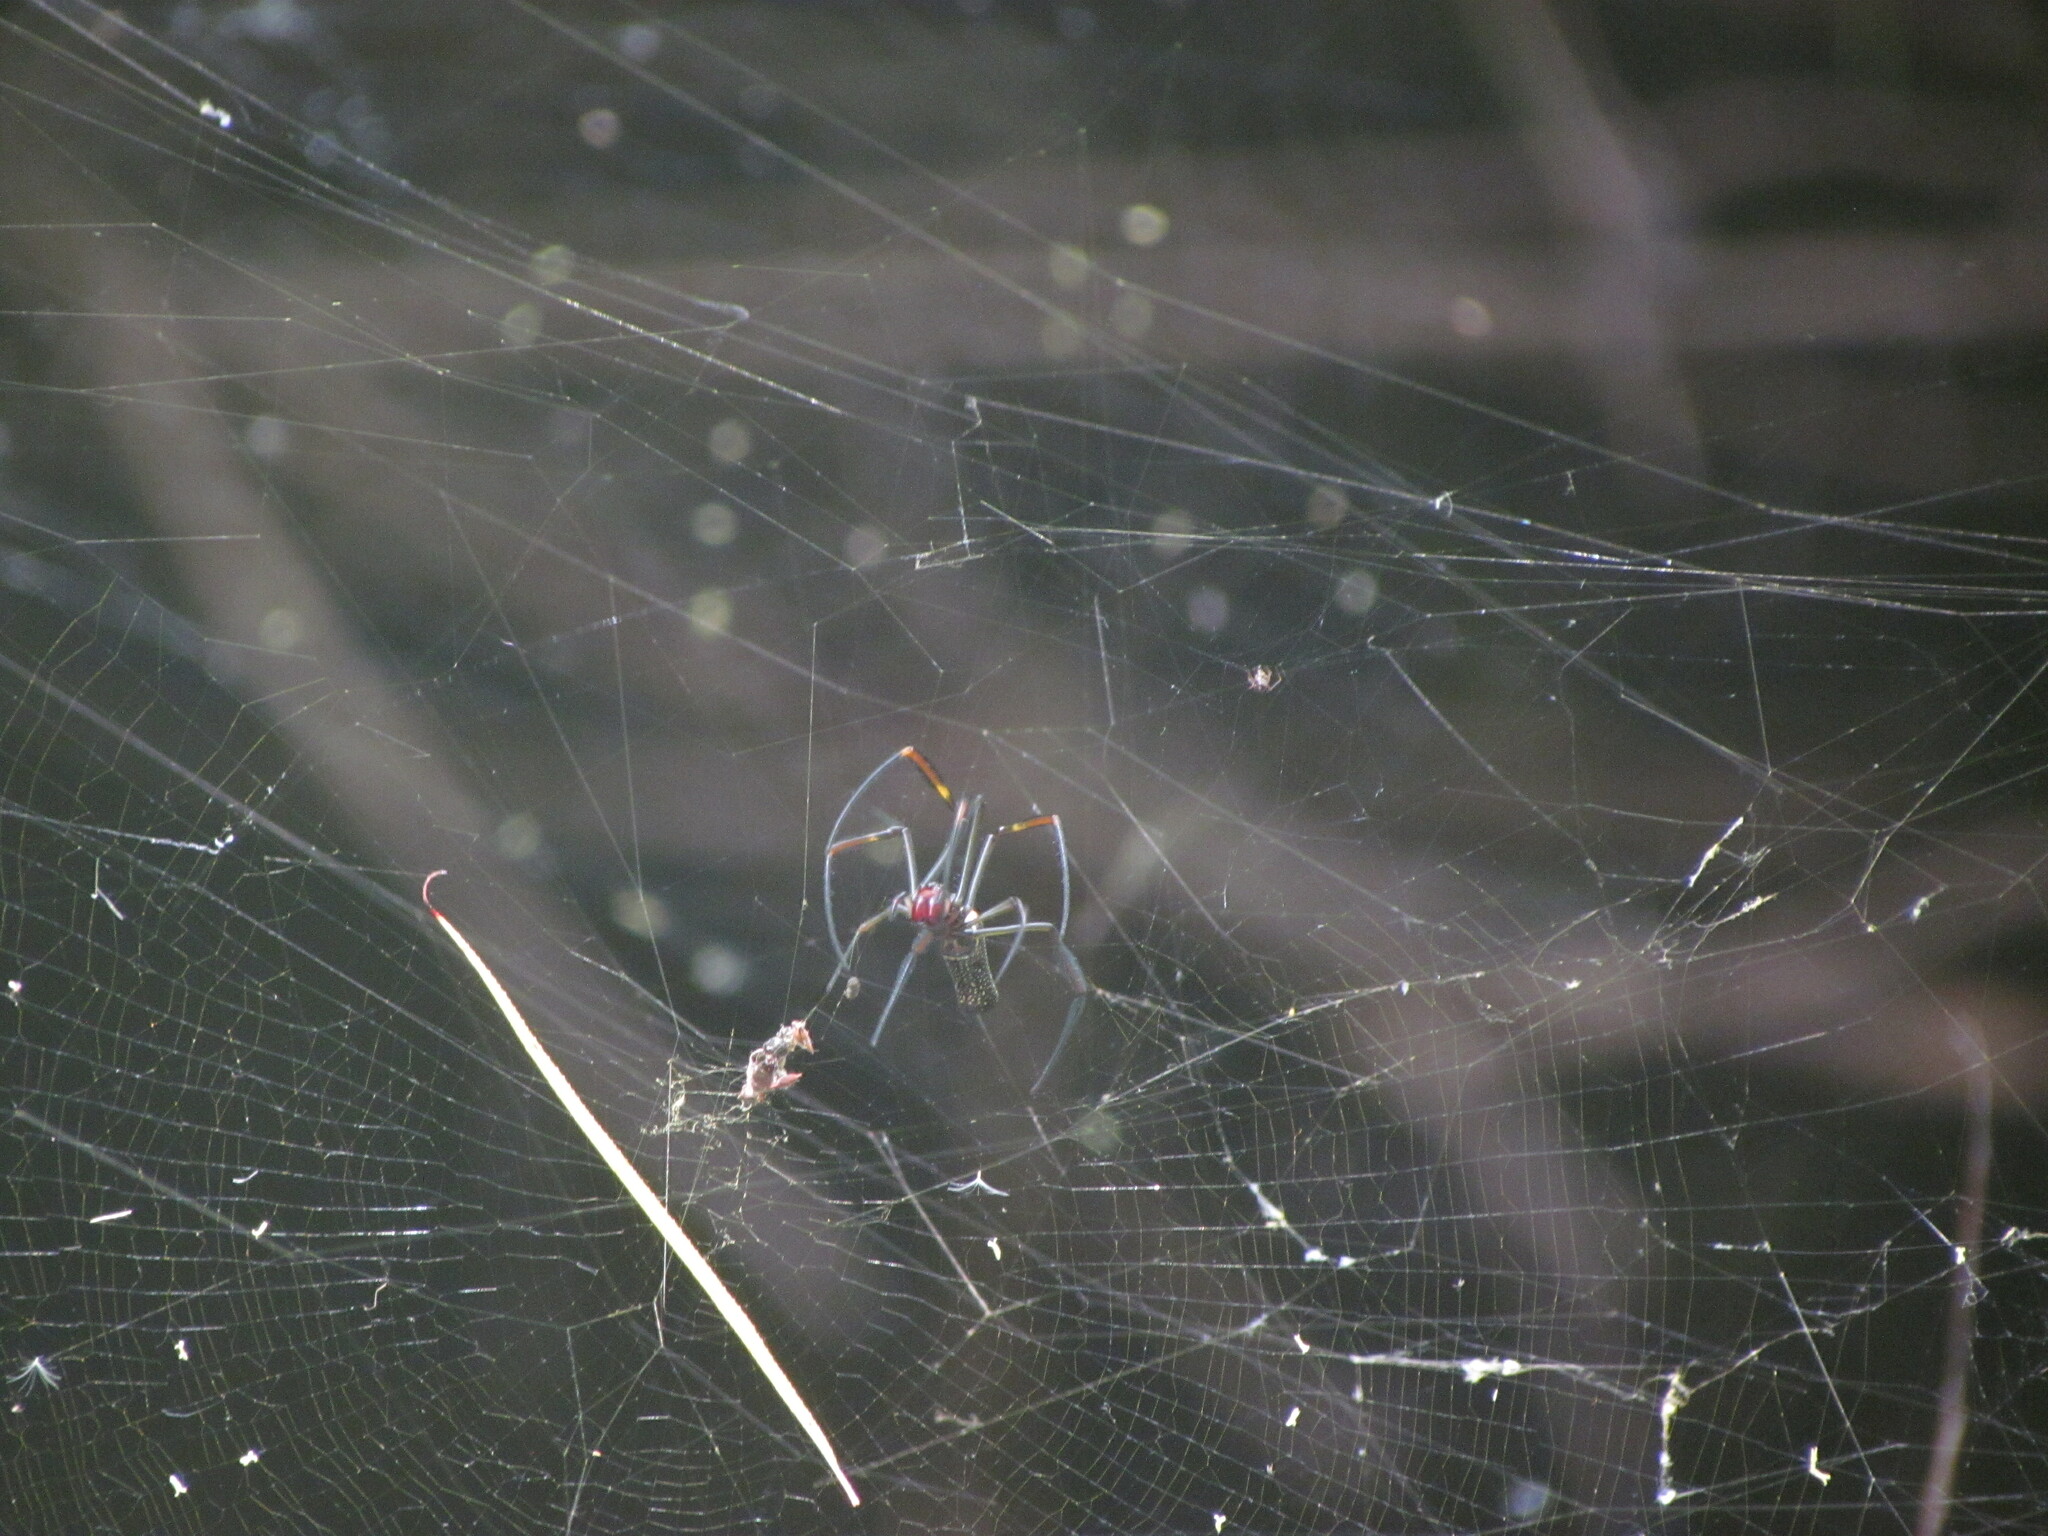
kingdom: Animalia
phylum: Arthropoda
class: Arachnida
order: Araneae
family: Araneidae
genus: Trichonephila
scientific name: Trichonephila clavipes
